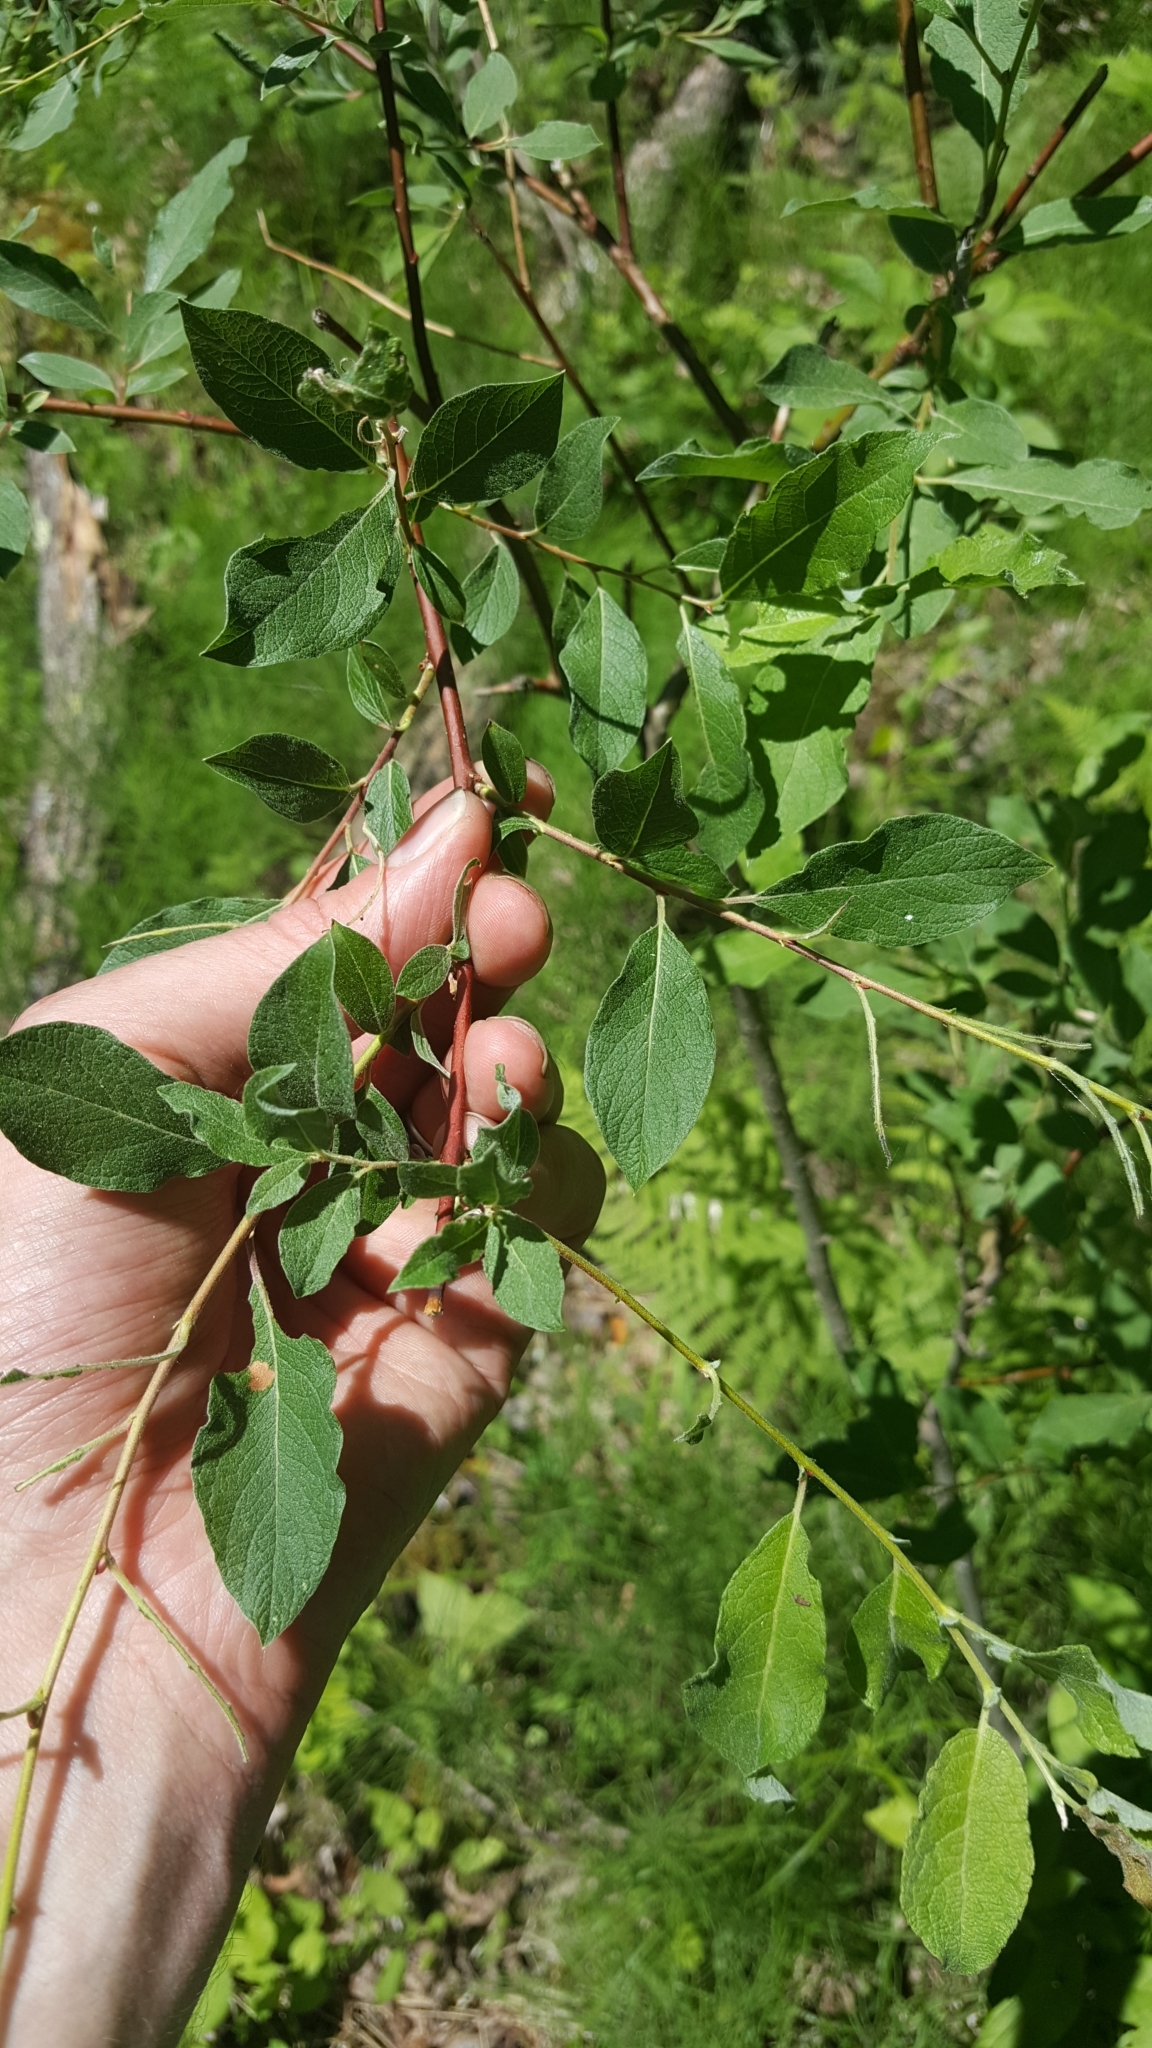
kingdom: Plantae
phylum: Tracheophyta
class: Magnoliopsida
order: Malpighiales
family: Salicaceae
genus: Salix
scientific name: Salix bebbiana
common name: Bebb's willow
